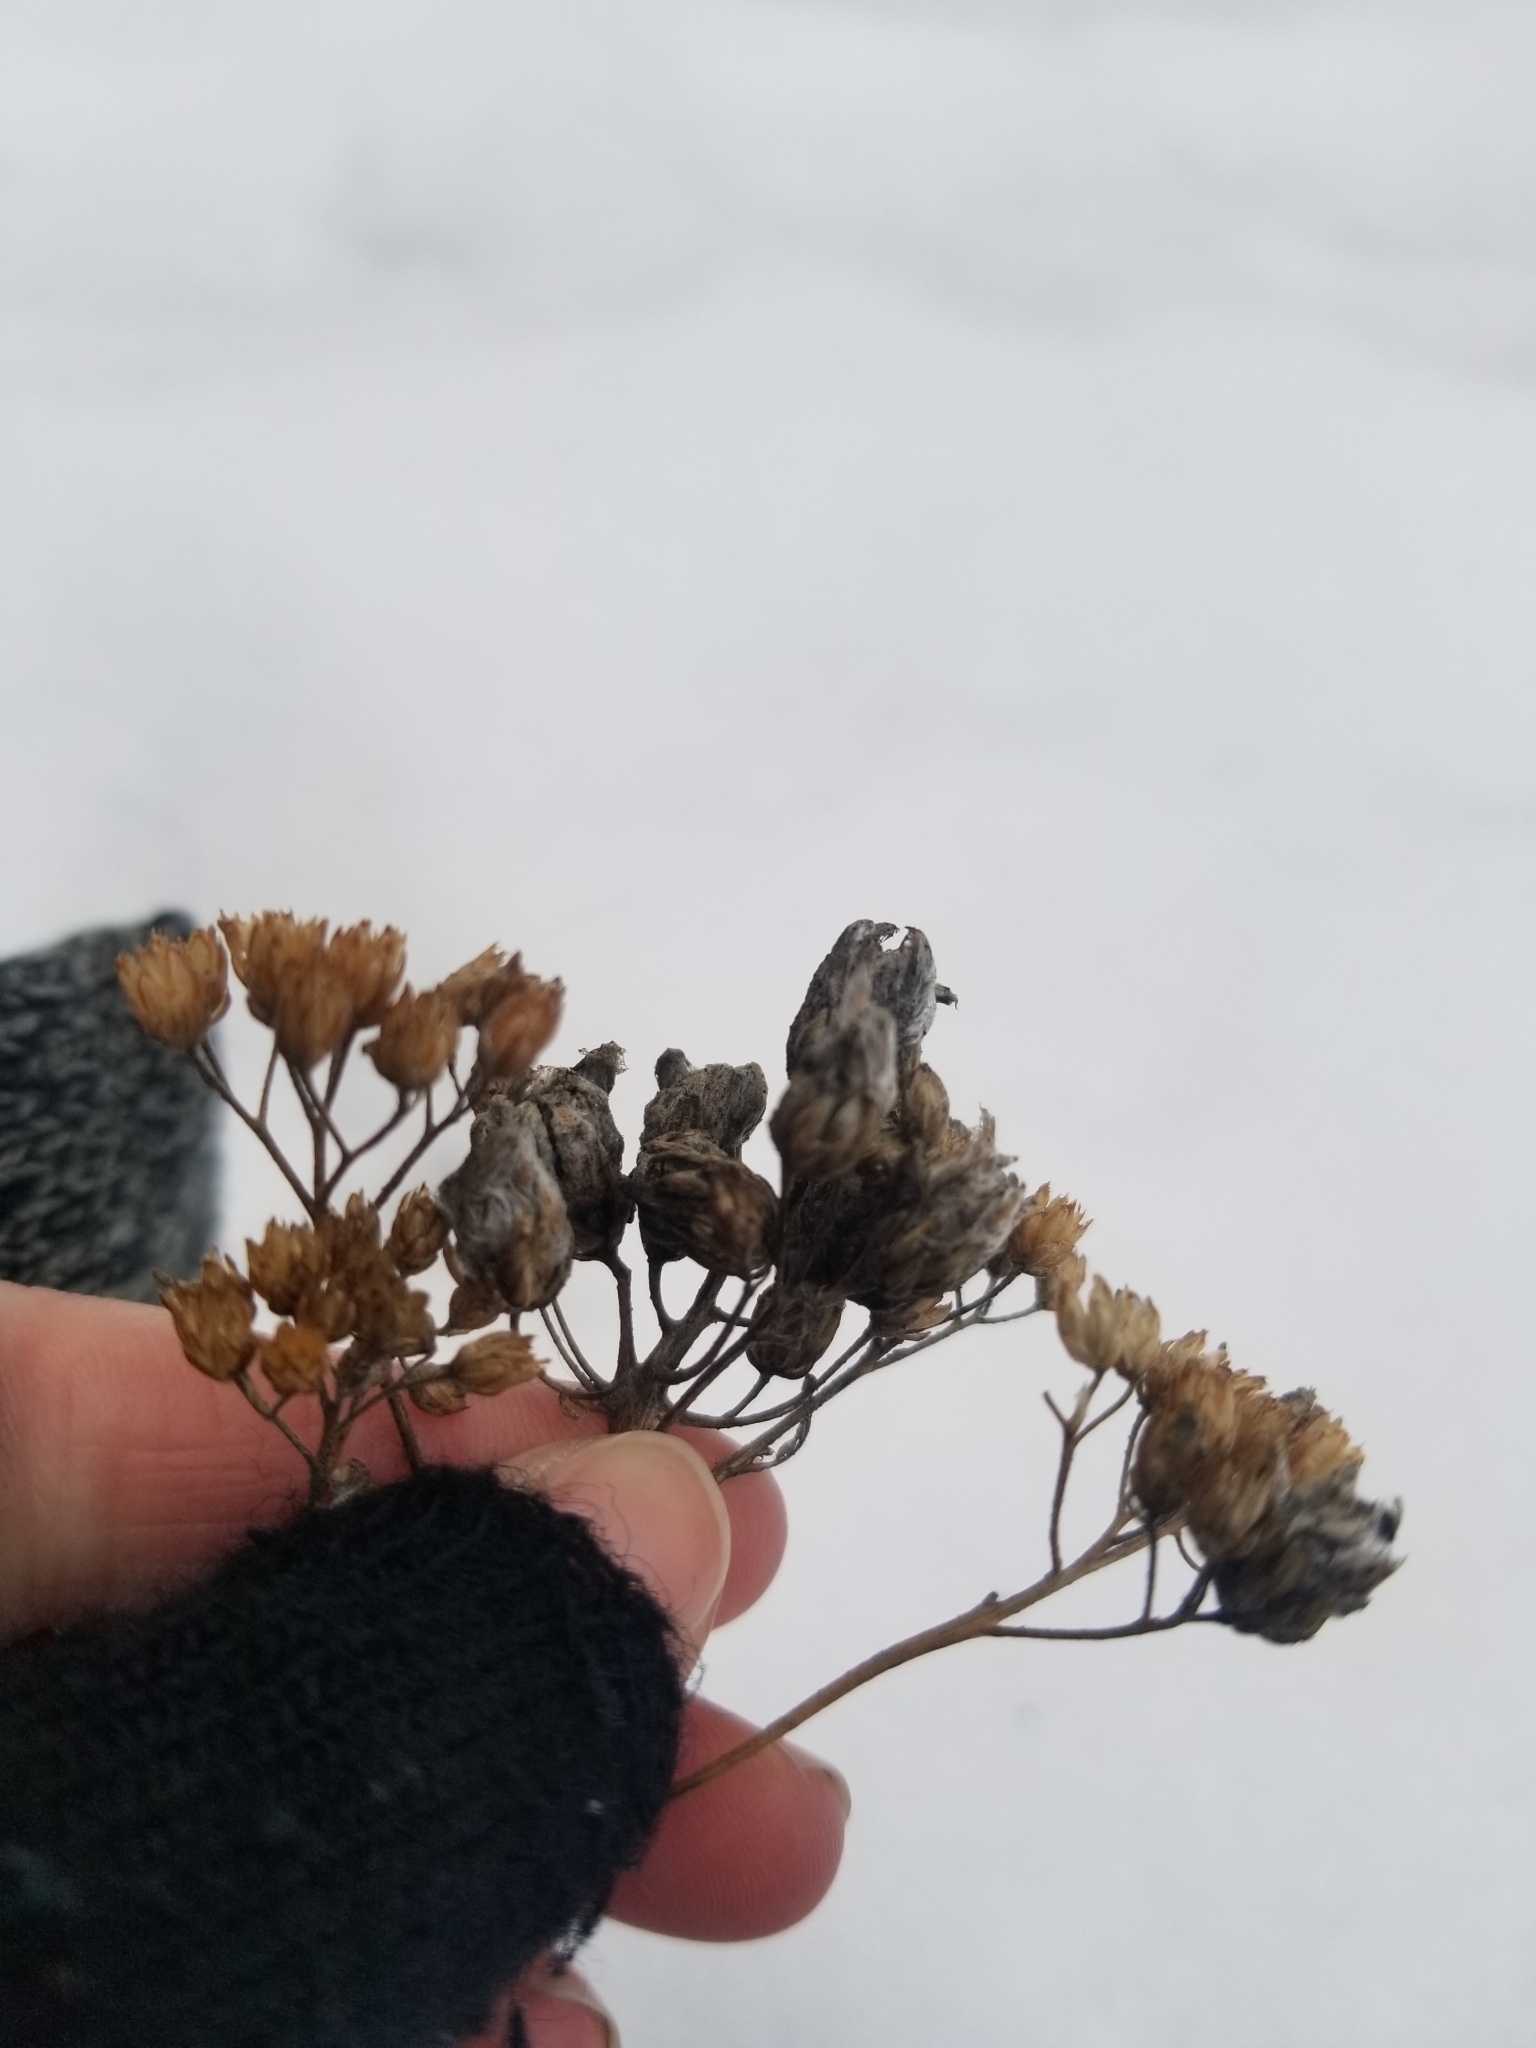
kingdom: Animalia
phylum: Arthropoda
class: Arachnida
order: Trombidiformes
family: Eriophyidae
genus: Aceria
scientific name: Aceria kiefferi
